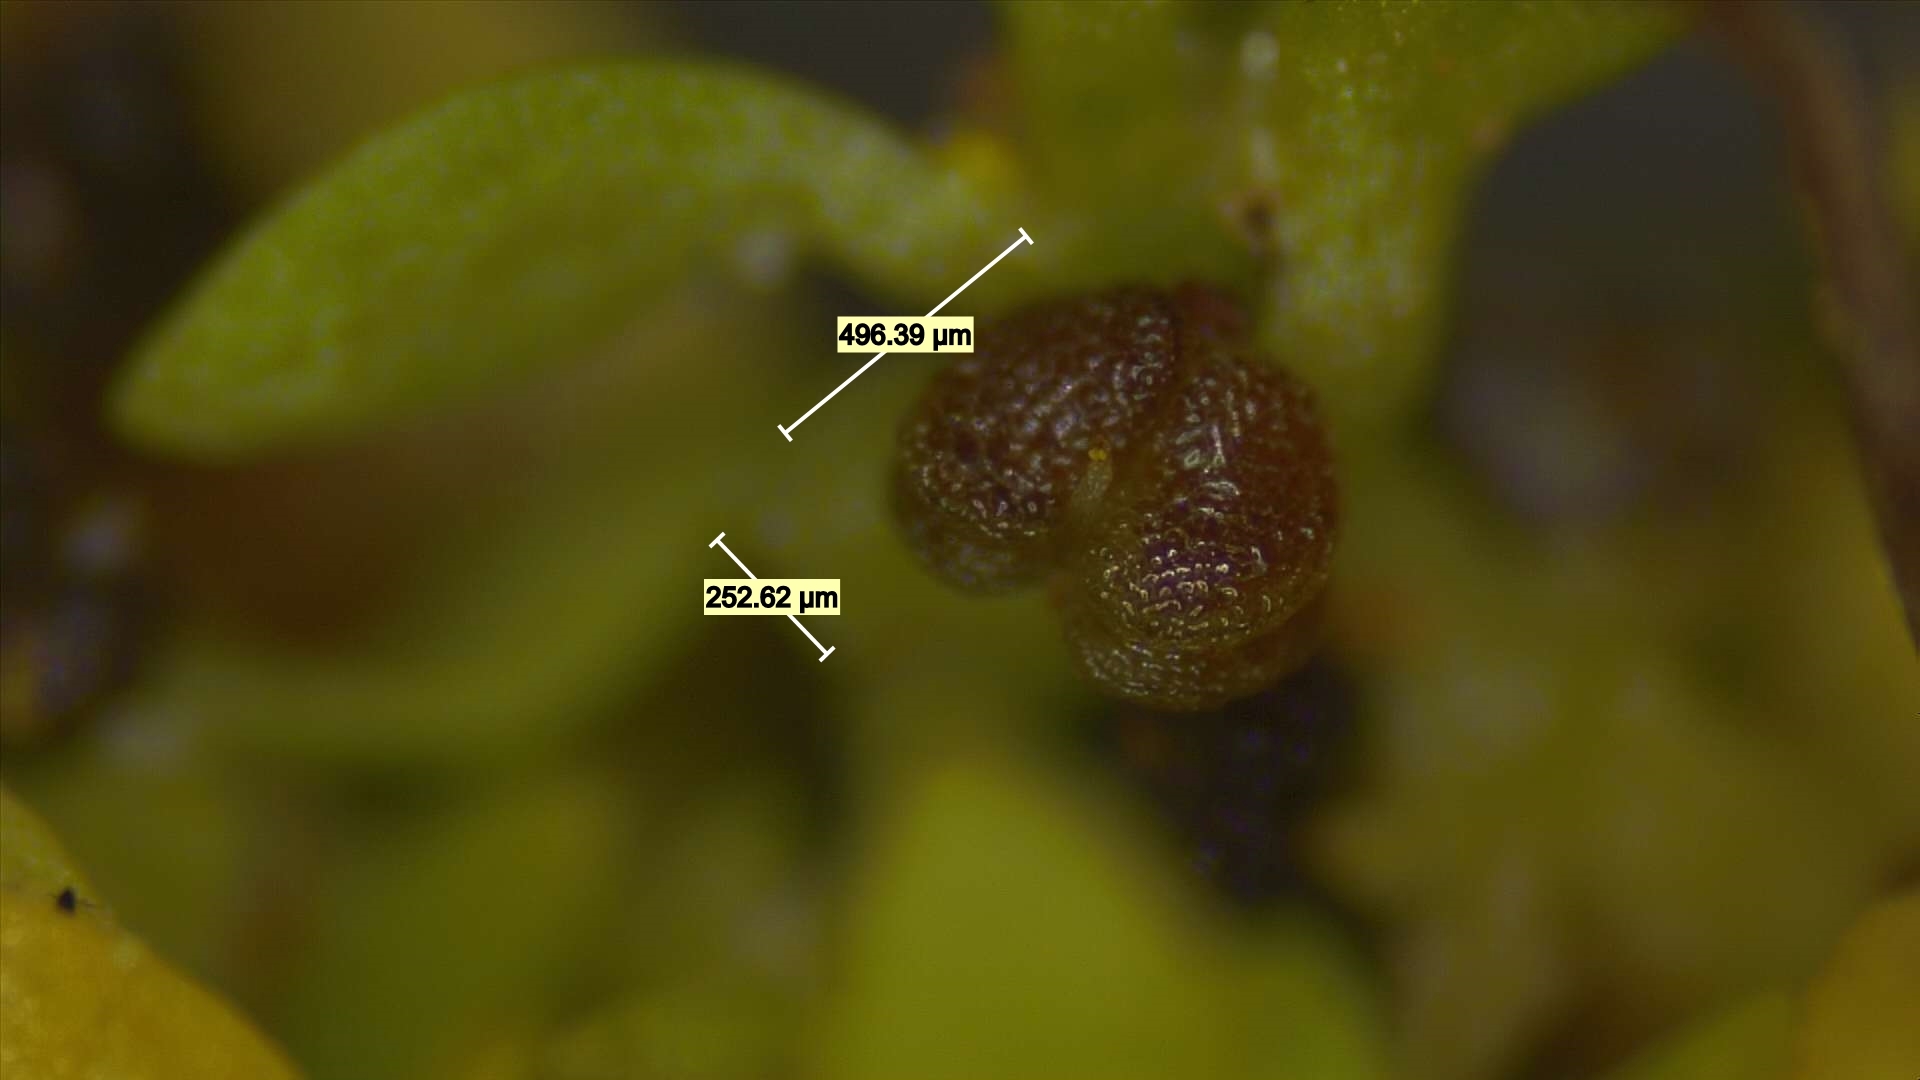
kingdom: Plantae
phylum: Tracheophyta
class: Magnoliopsida
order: Lamiales
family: Plantaginaceae
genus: Callitriche
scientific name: Callitriche peploides
